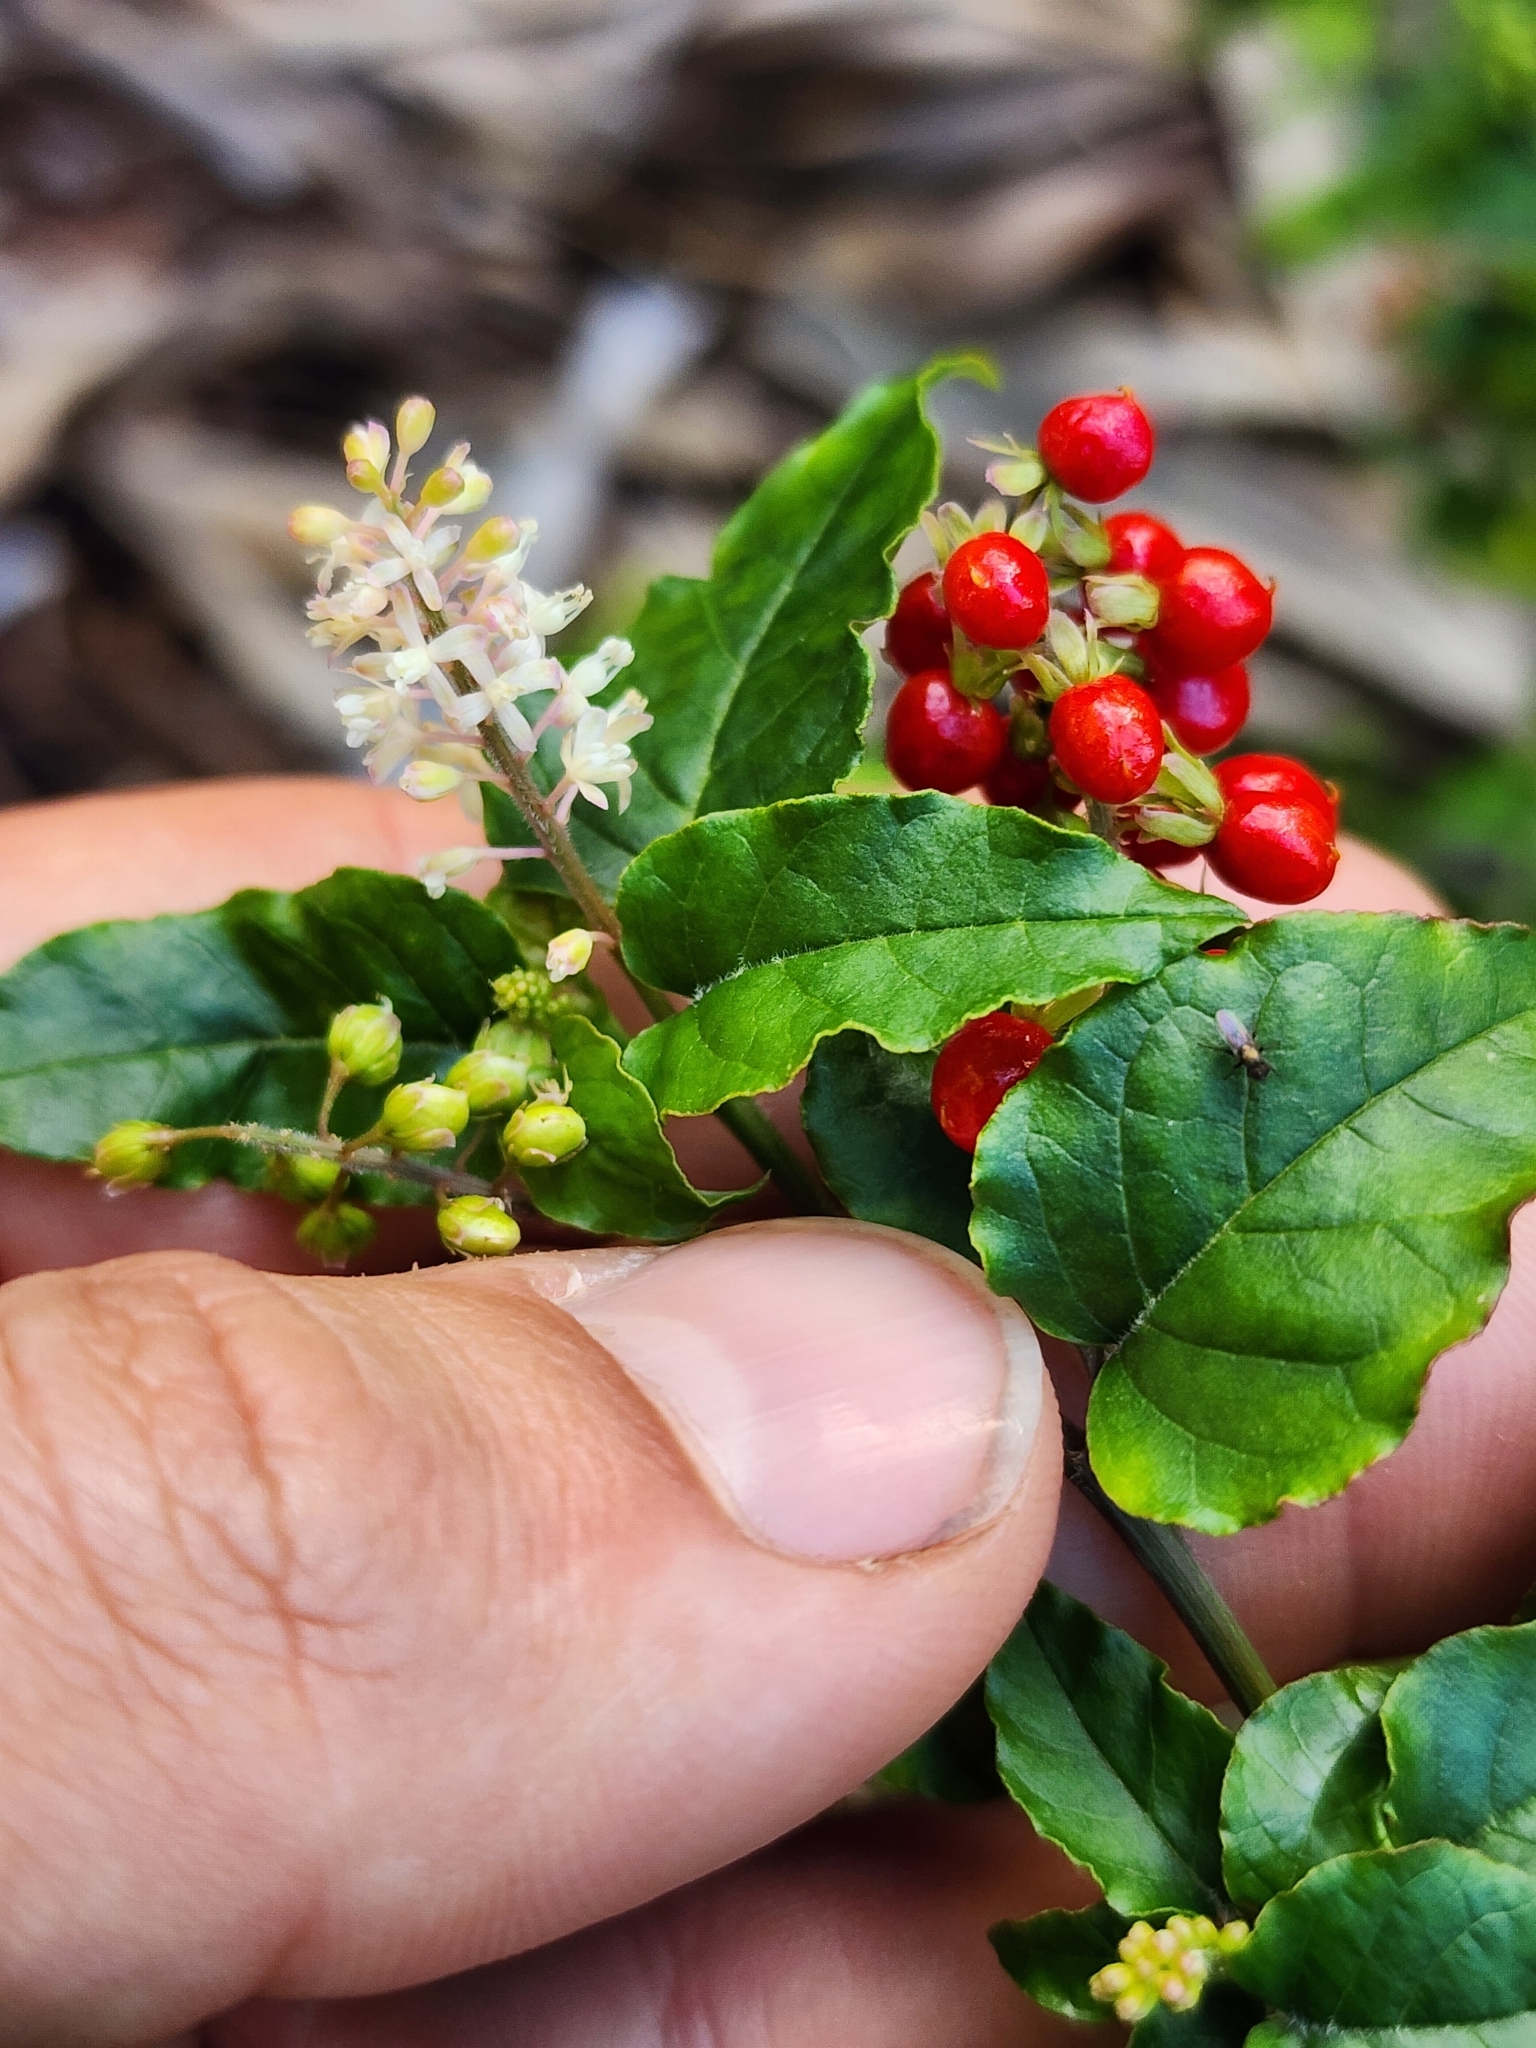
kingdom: Plantae
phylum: Tracheophyta
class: Magnoliopsida
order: Caryophyllales
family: Phytolaccaceae
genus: Rivina
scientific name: Rivina humilis
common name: Rougeplant
